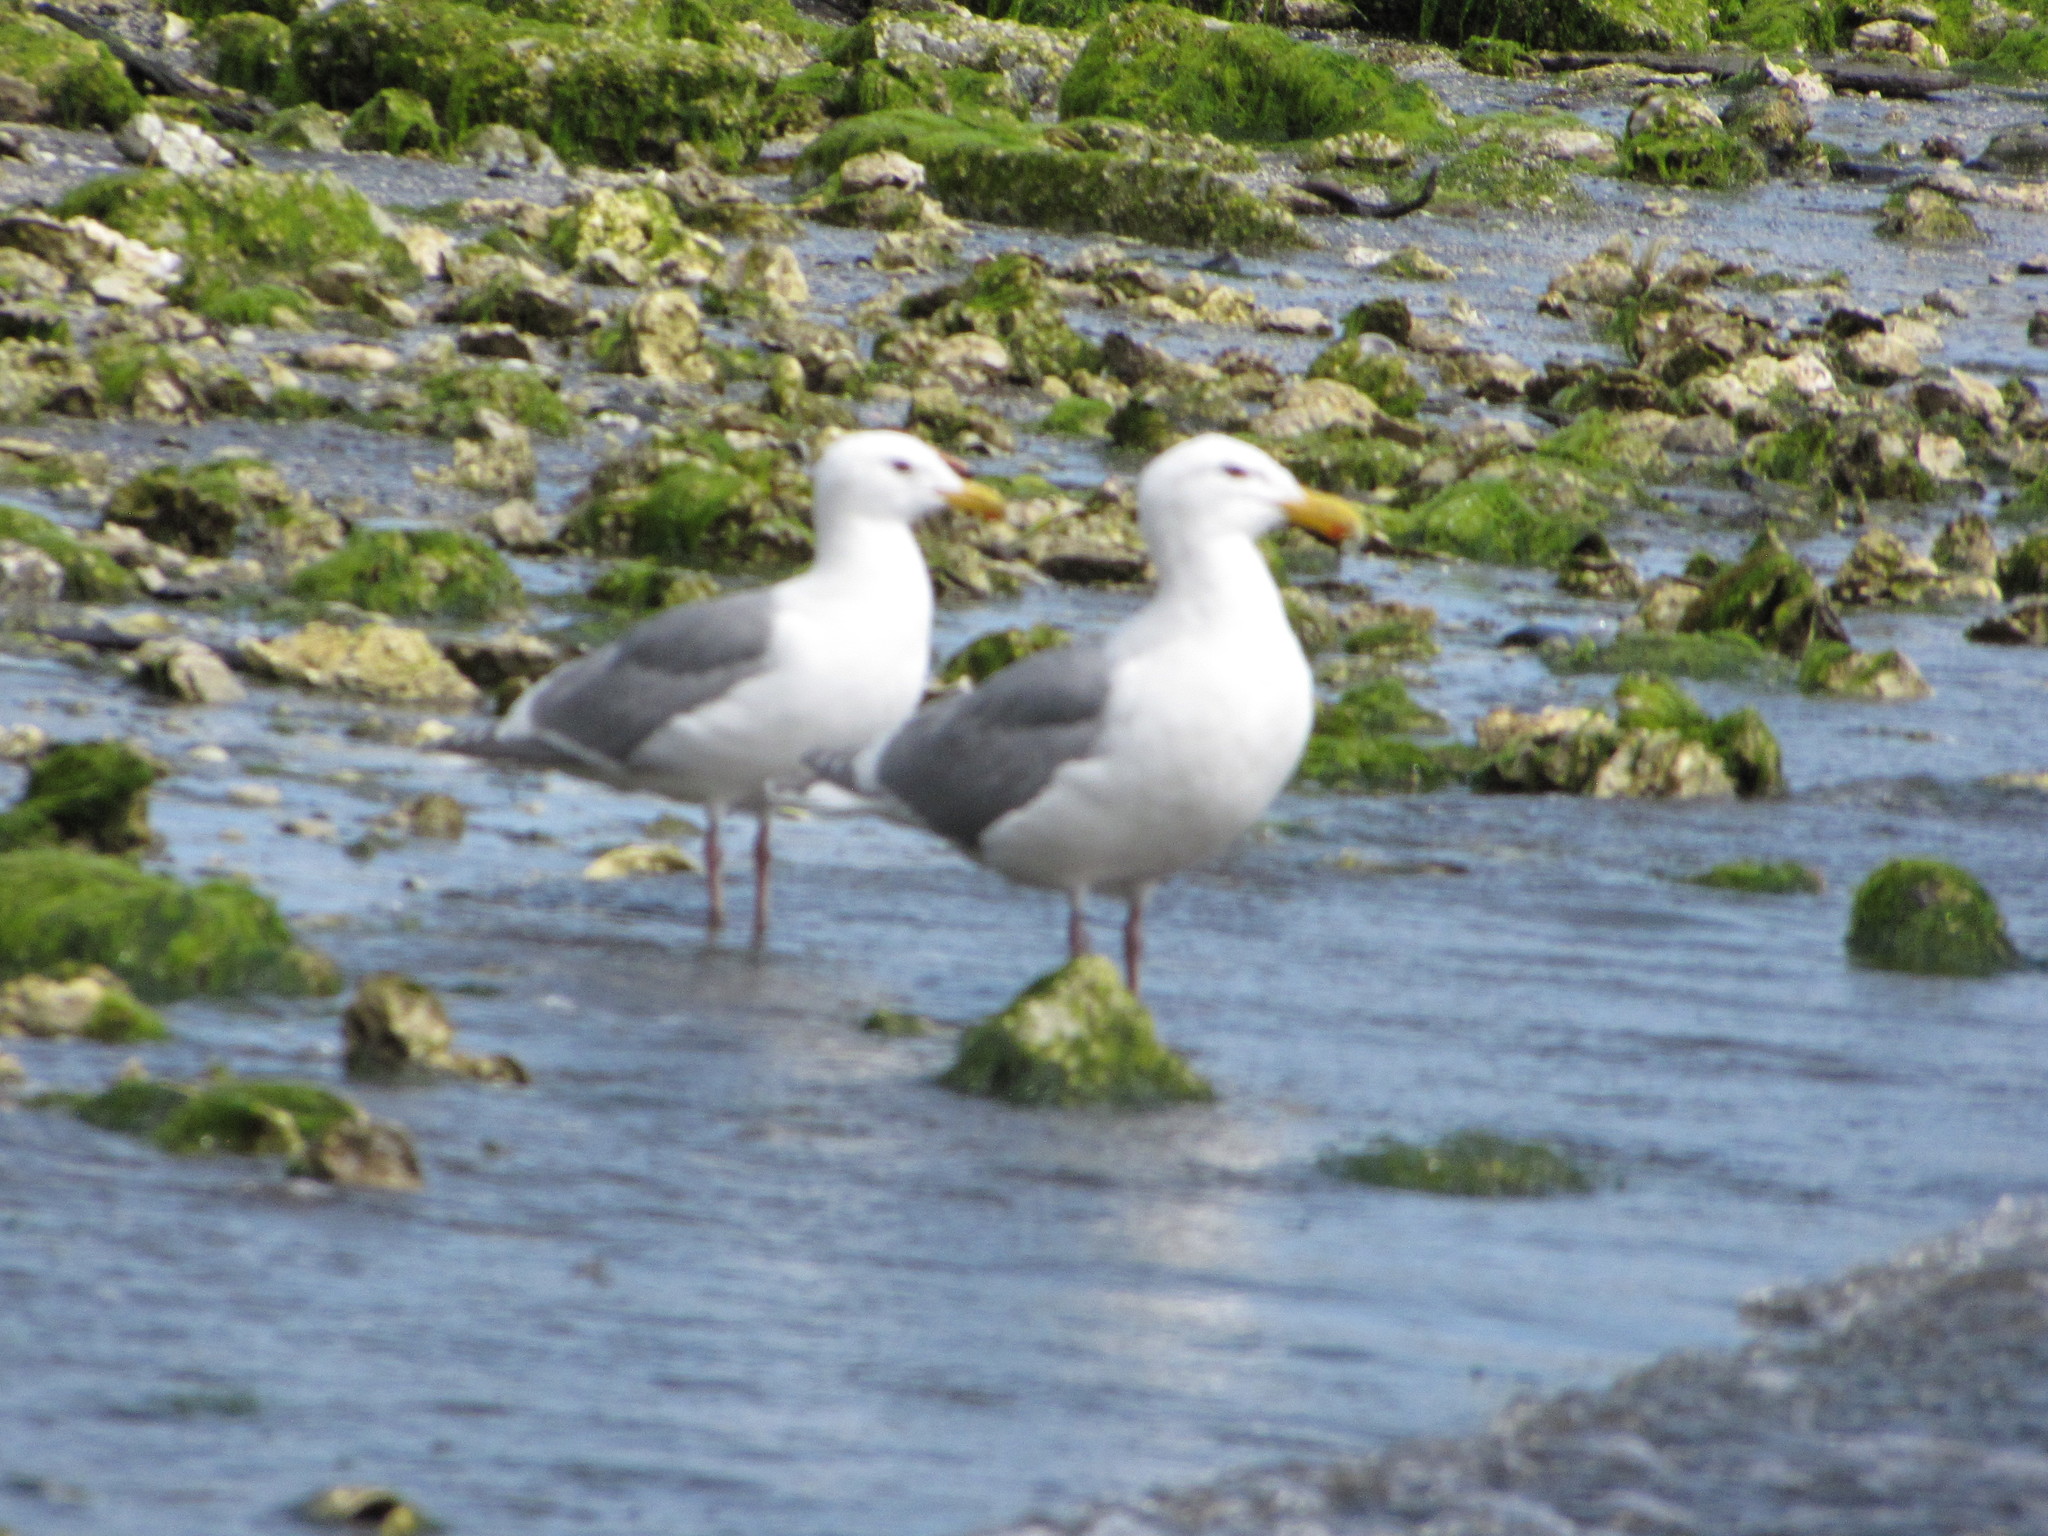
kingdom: Animalia
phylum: Chordata
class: Aves
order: Charadriiformes
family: Laridae
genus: Larus
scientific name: Larus glaucescens
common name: Glaucous-winged gull
